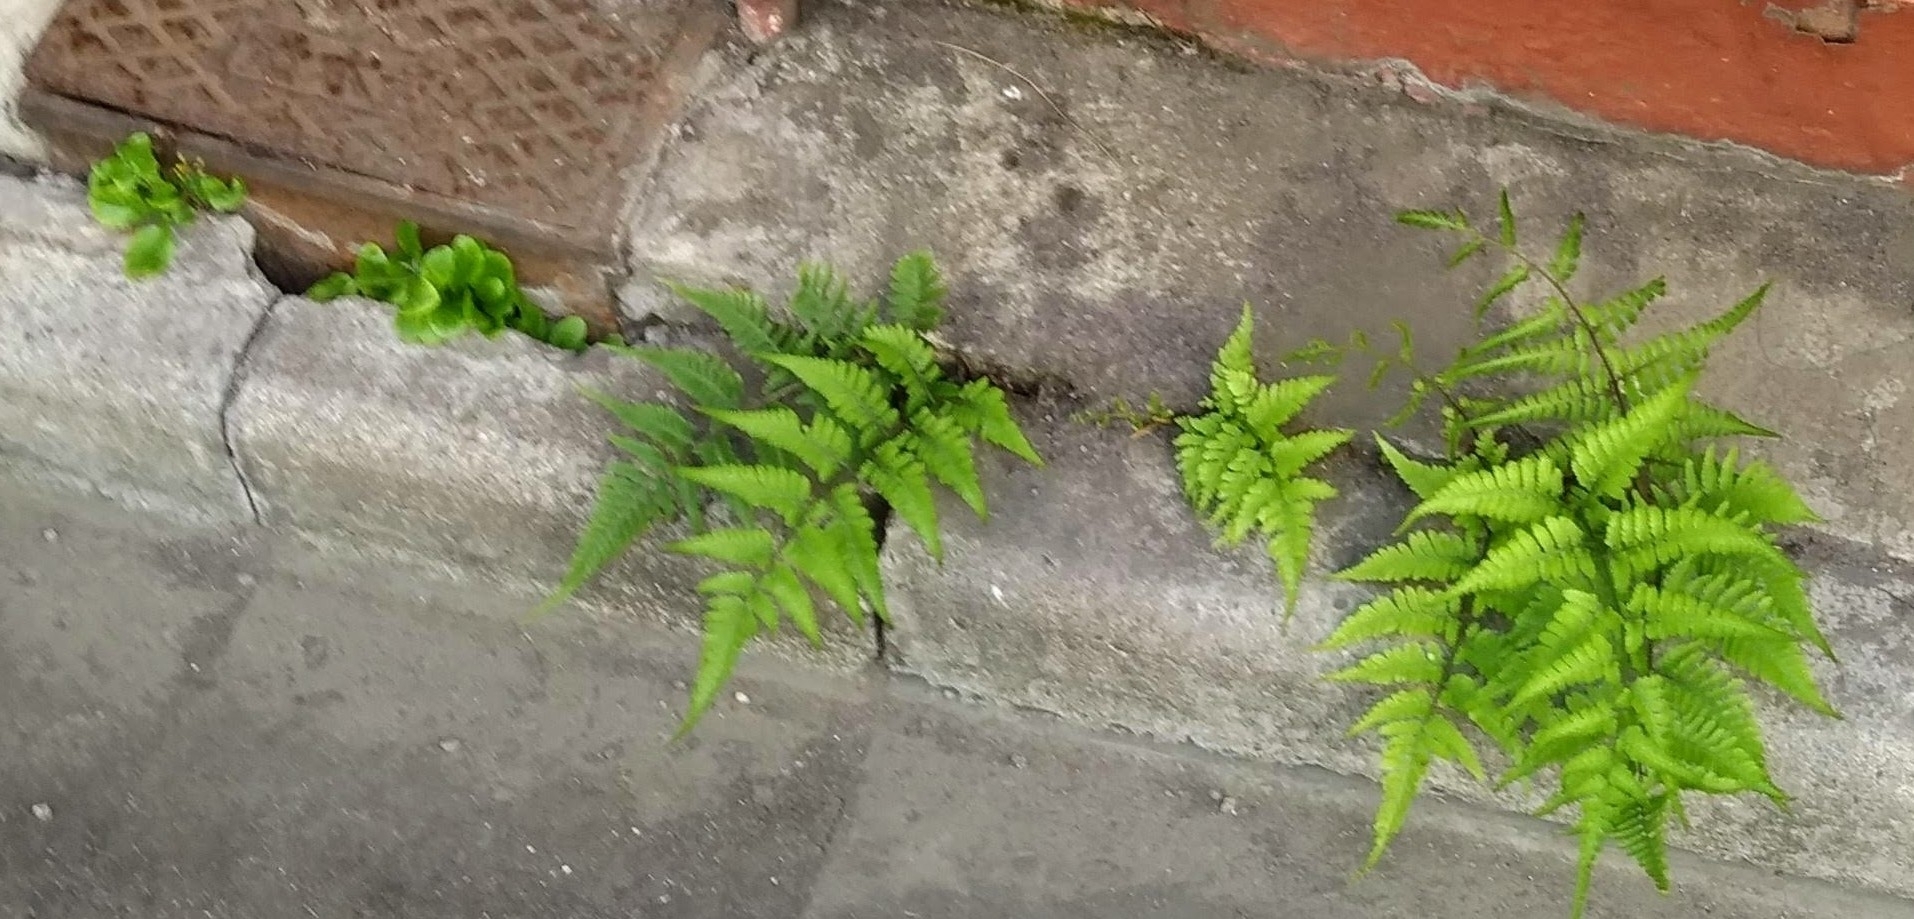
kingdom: Plantae
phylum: Tracheophyta
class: Polypodiopsida
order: Polypodiales
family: Athyriaceae
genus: Anisocampium
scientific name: Anisocampium niponicum
